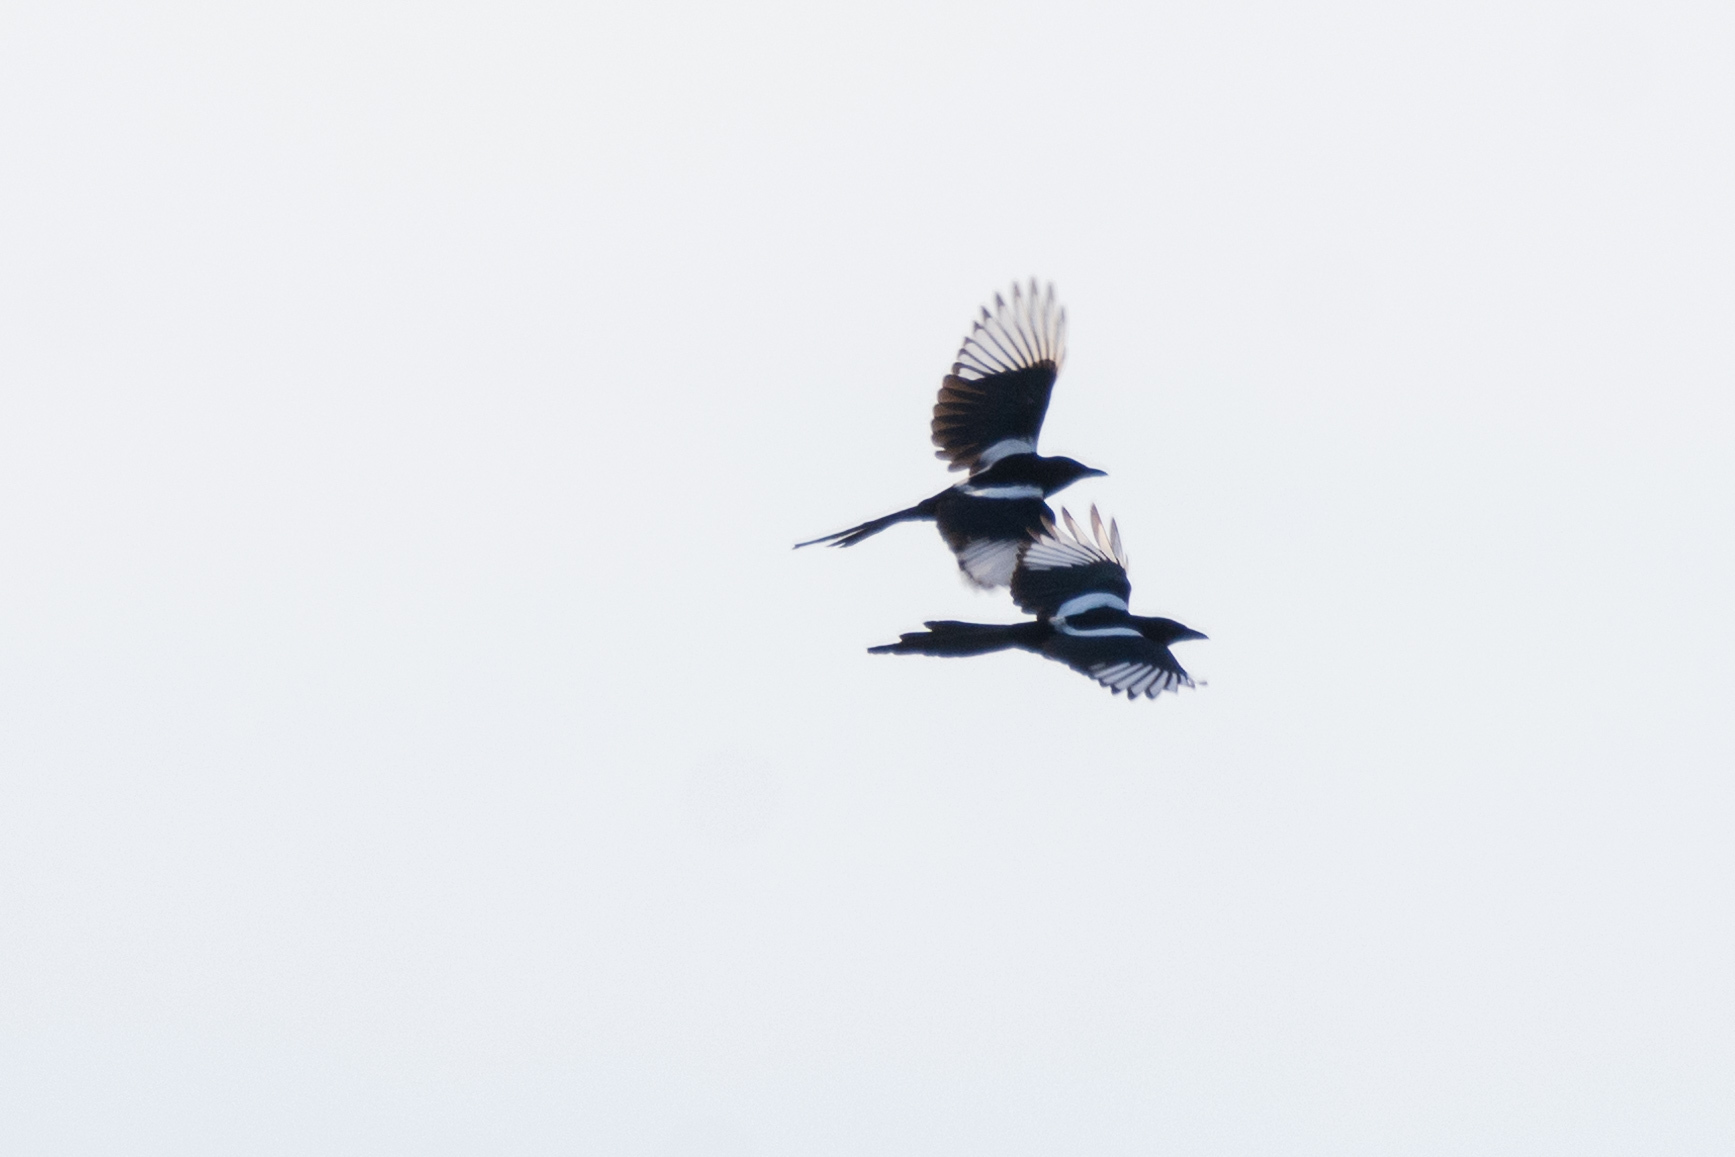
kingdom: Animalia
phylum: Chordata
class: Aves
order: Passeriformes
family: Corvidae
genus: Pica
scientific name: Pica pica
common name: Eurasian magpie
